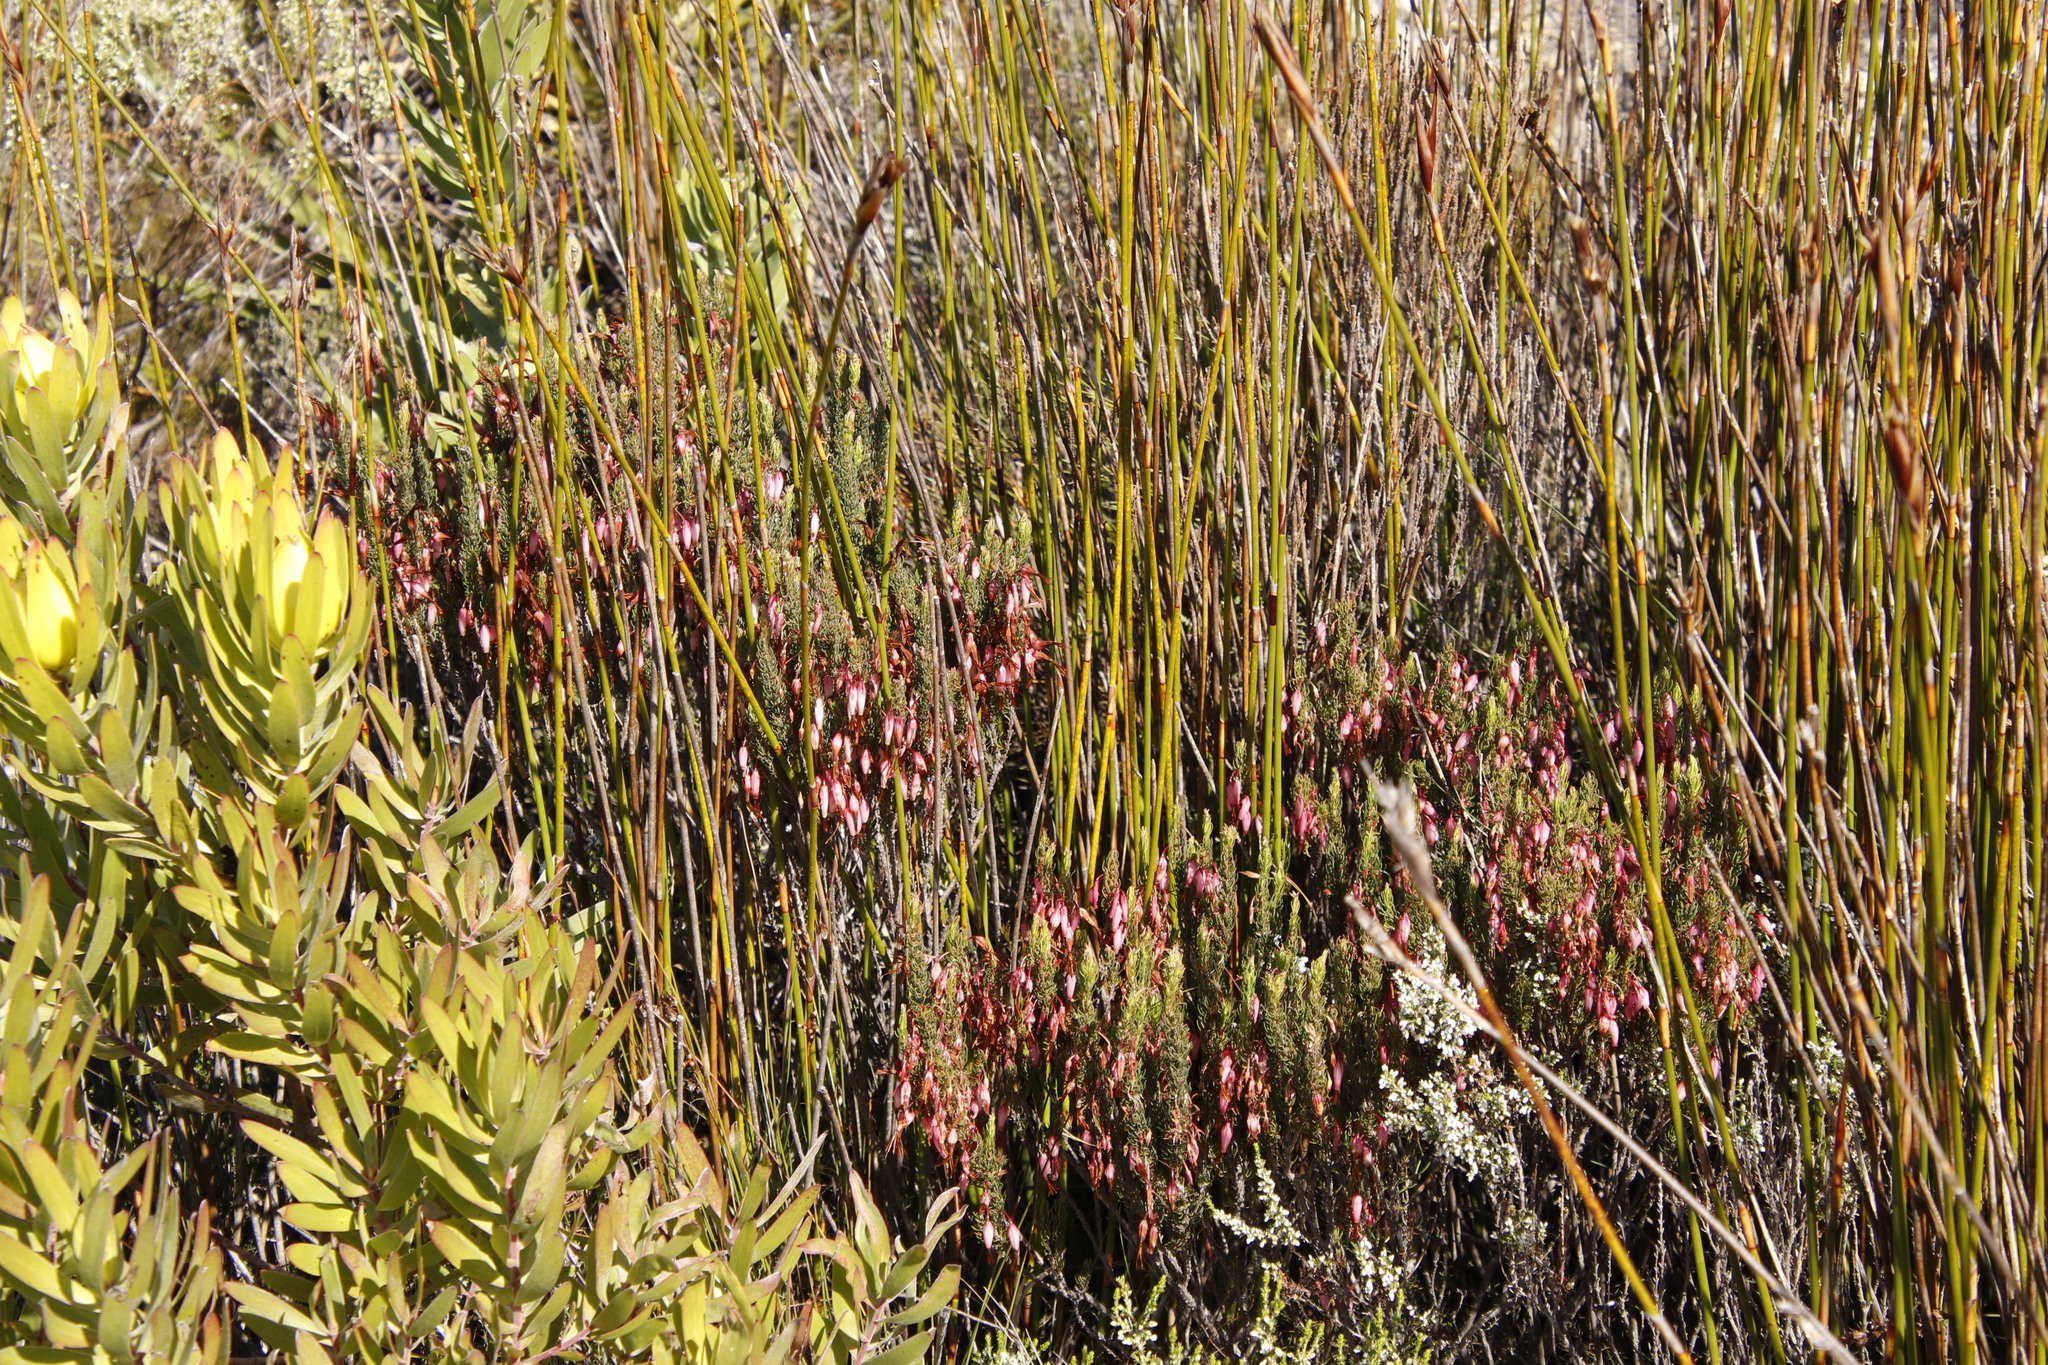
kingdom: Plantae
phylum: Tracheophyta
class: Magnoliopsida
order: Ericales
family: Ericaceae
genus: Erica
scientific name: Erica plukenetii
